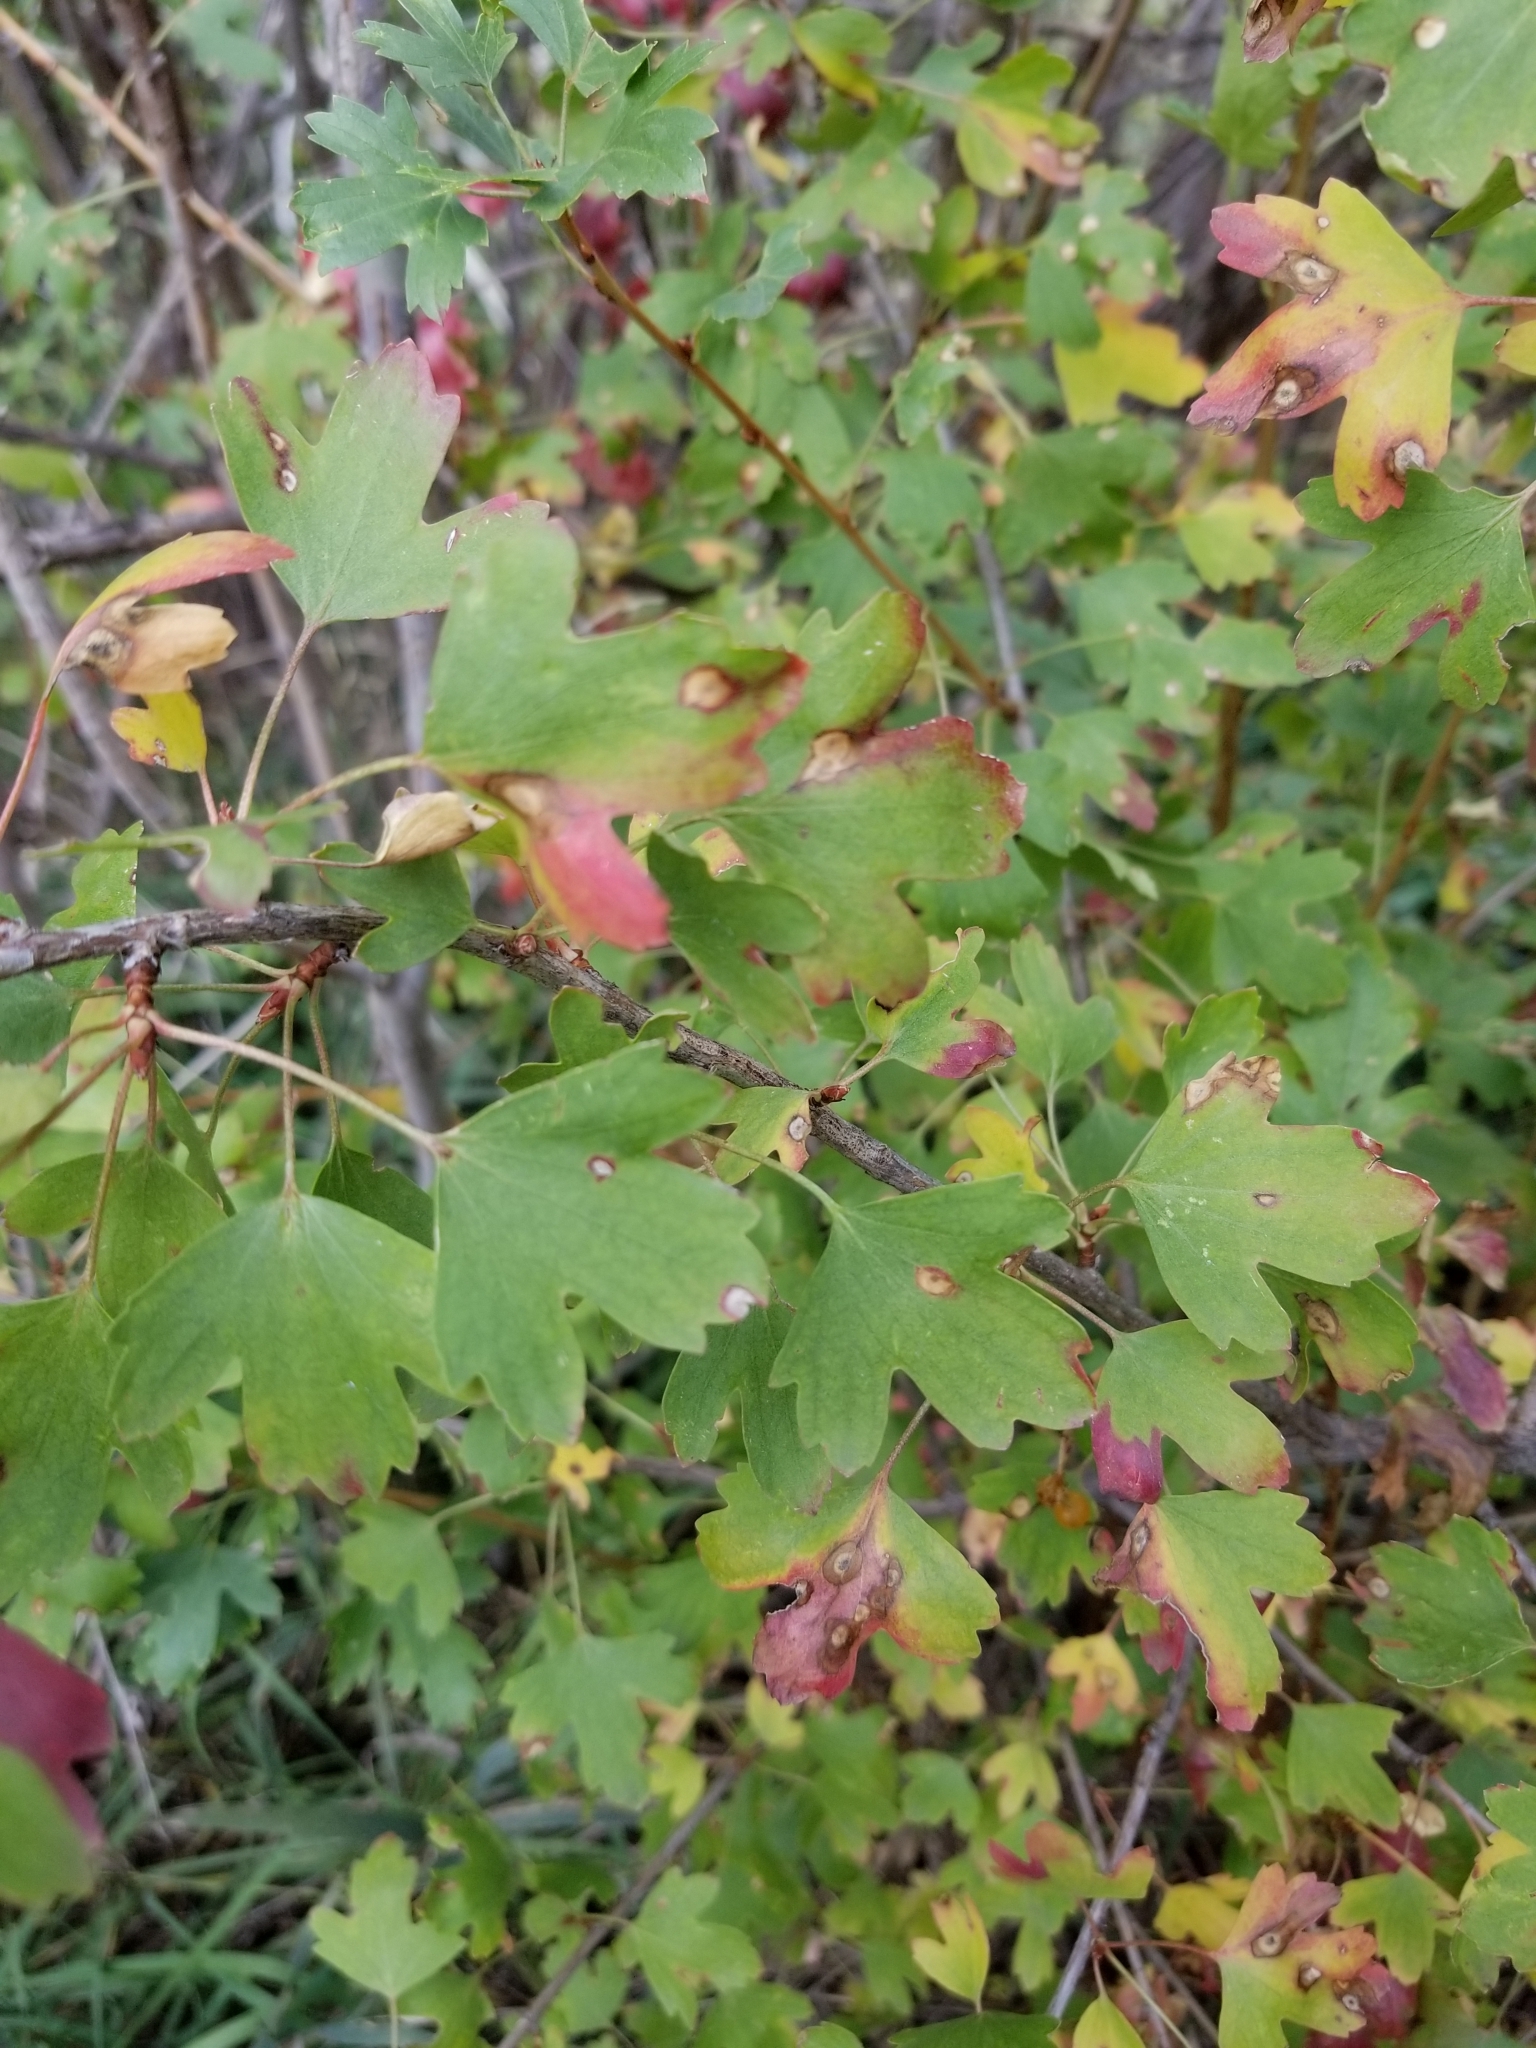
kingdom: Plantae
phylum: Tracheophyta
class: Magnoliopsida
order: Saxifragales
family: Grossulariaceae
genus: Ribes
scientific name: Ribes aureum
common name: Golden currant
